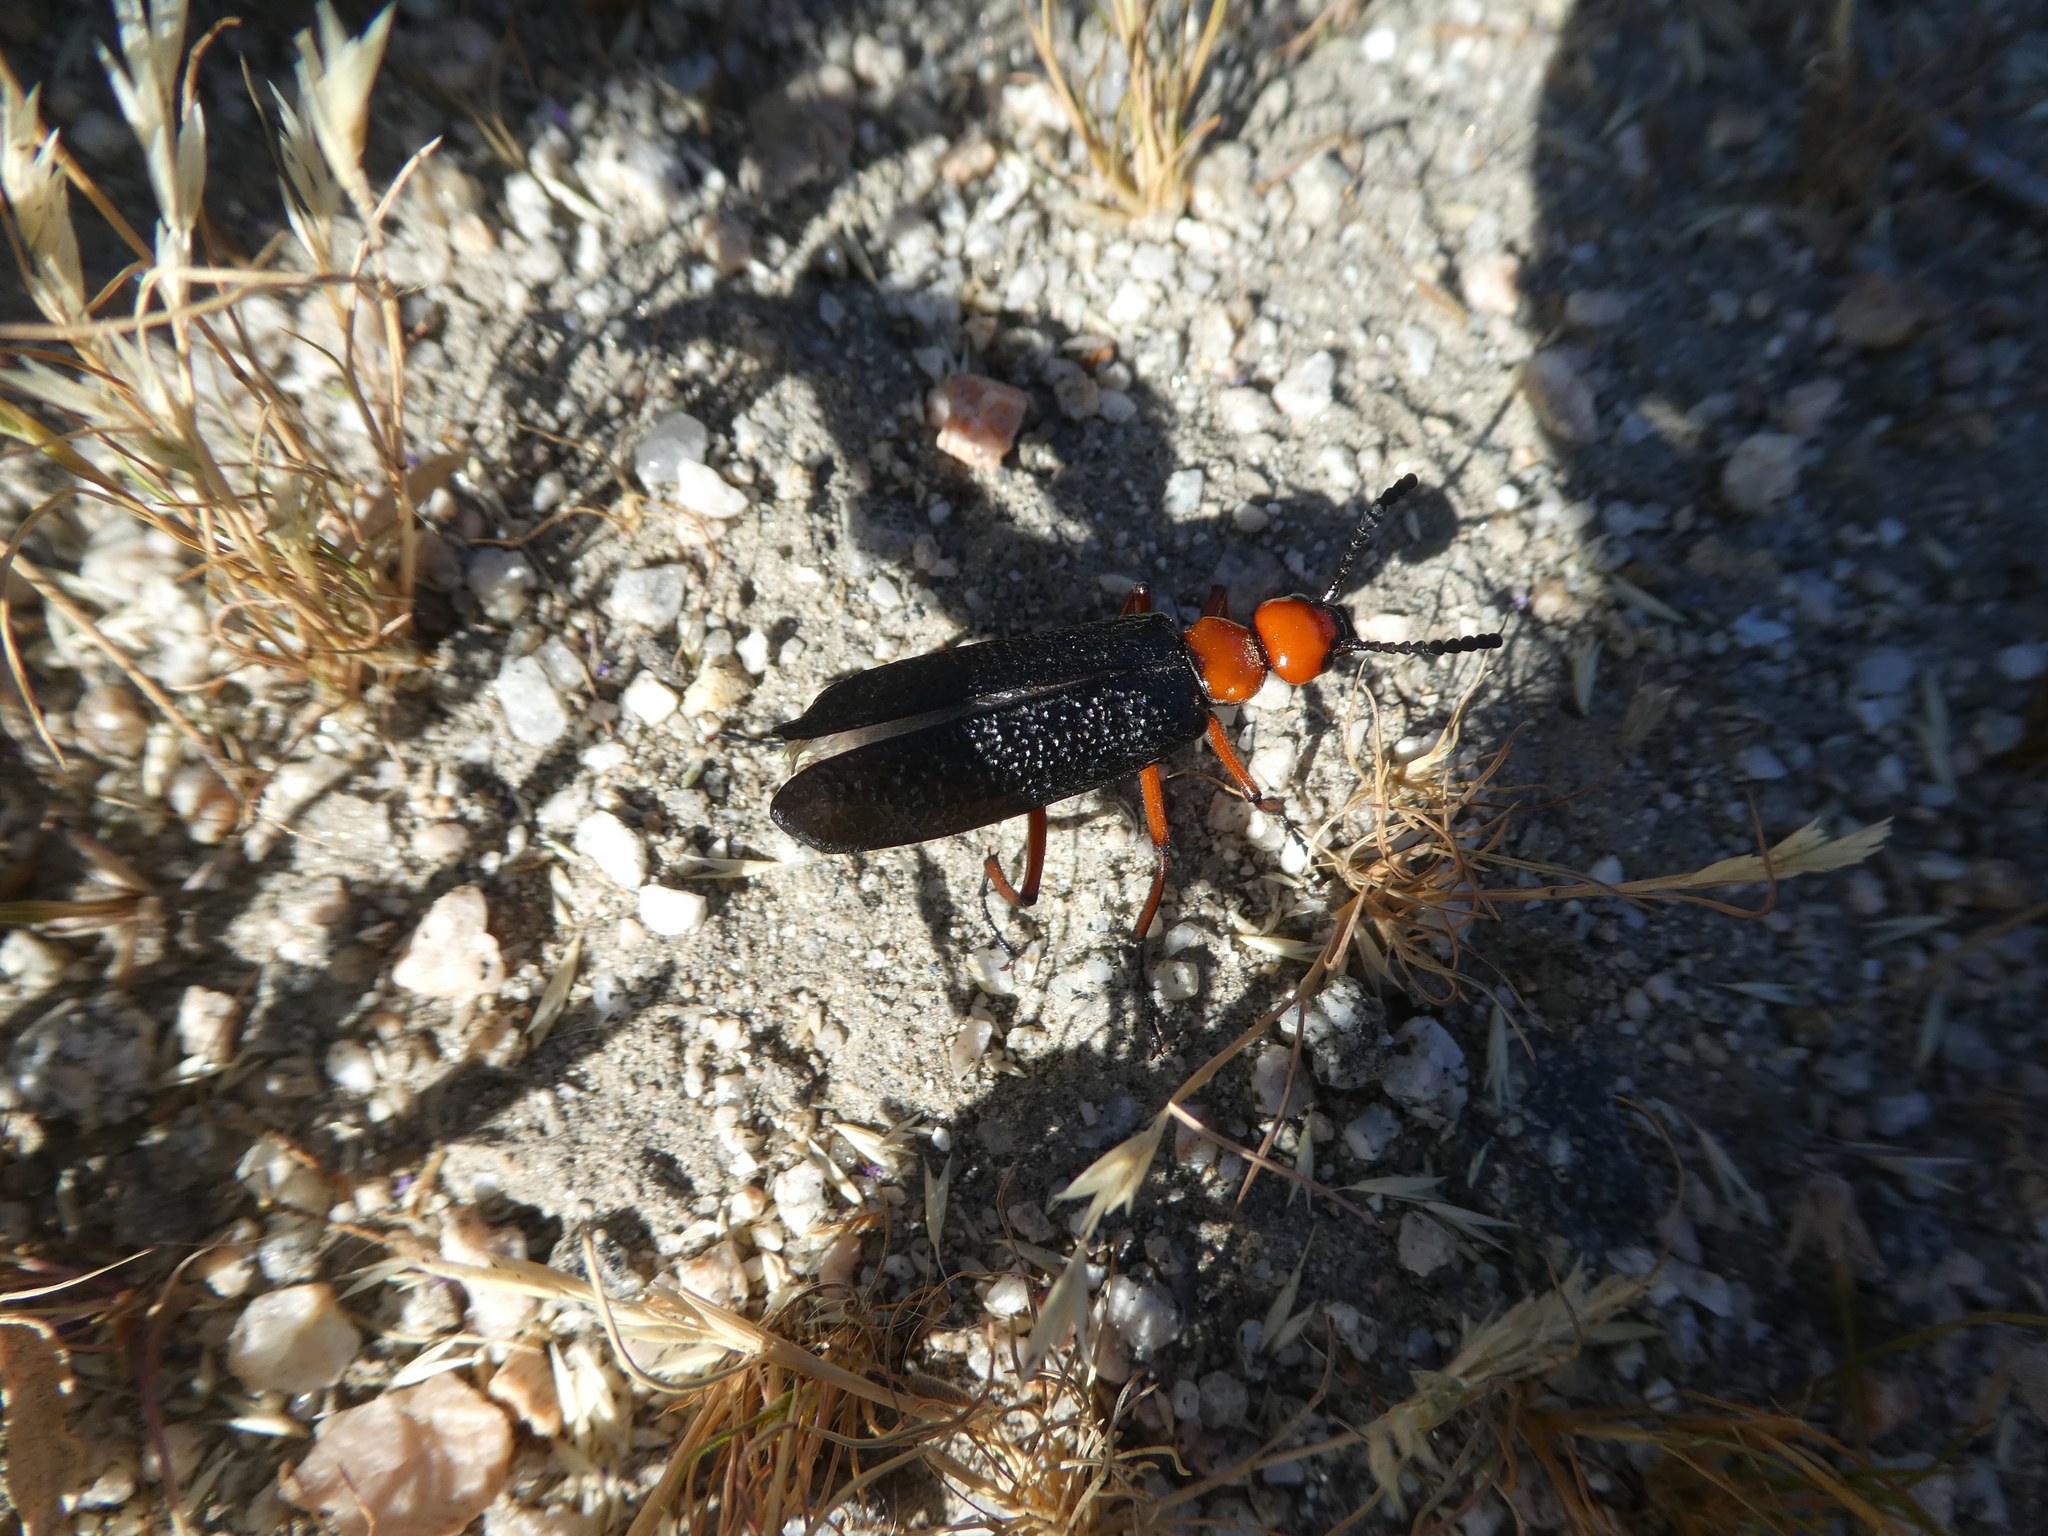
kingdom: Animalia
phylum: Arthropoda
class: Insecta
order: Coleoptera
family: Meloidae
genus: Lytta
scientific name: Lytta magister
